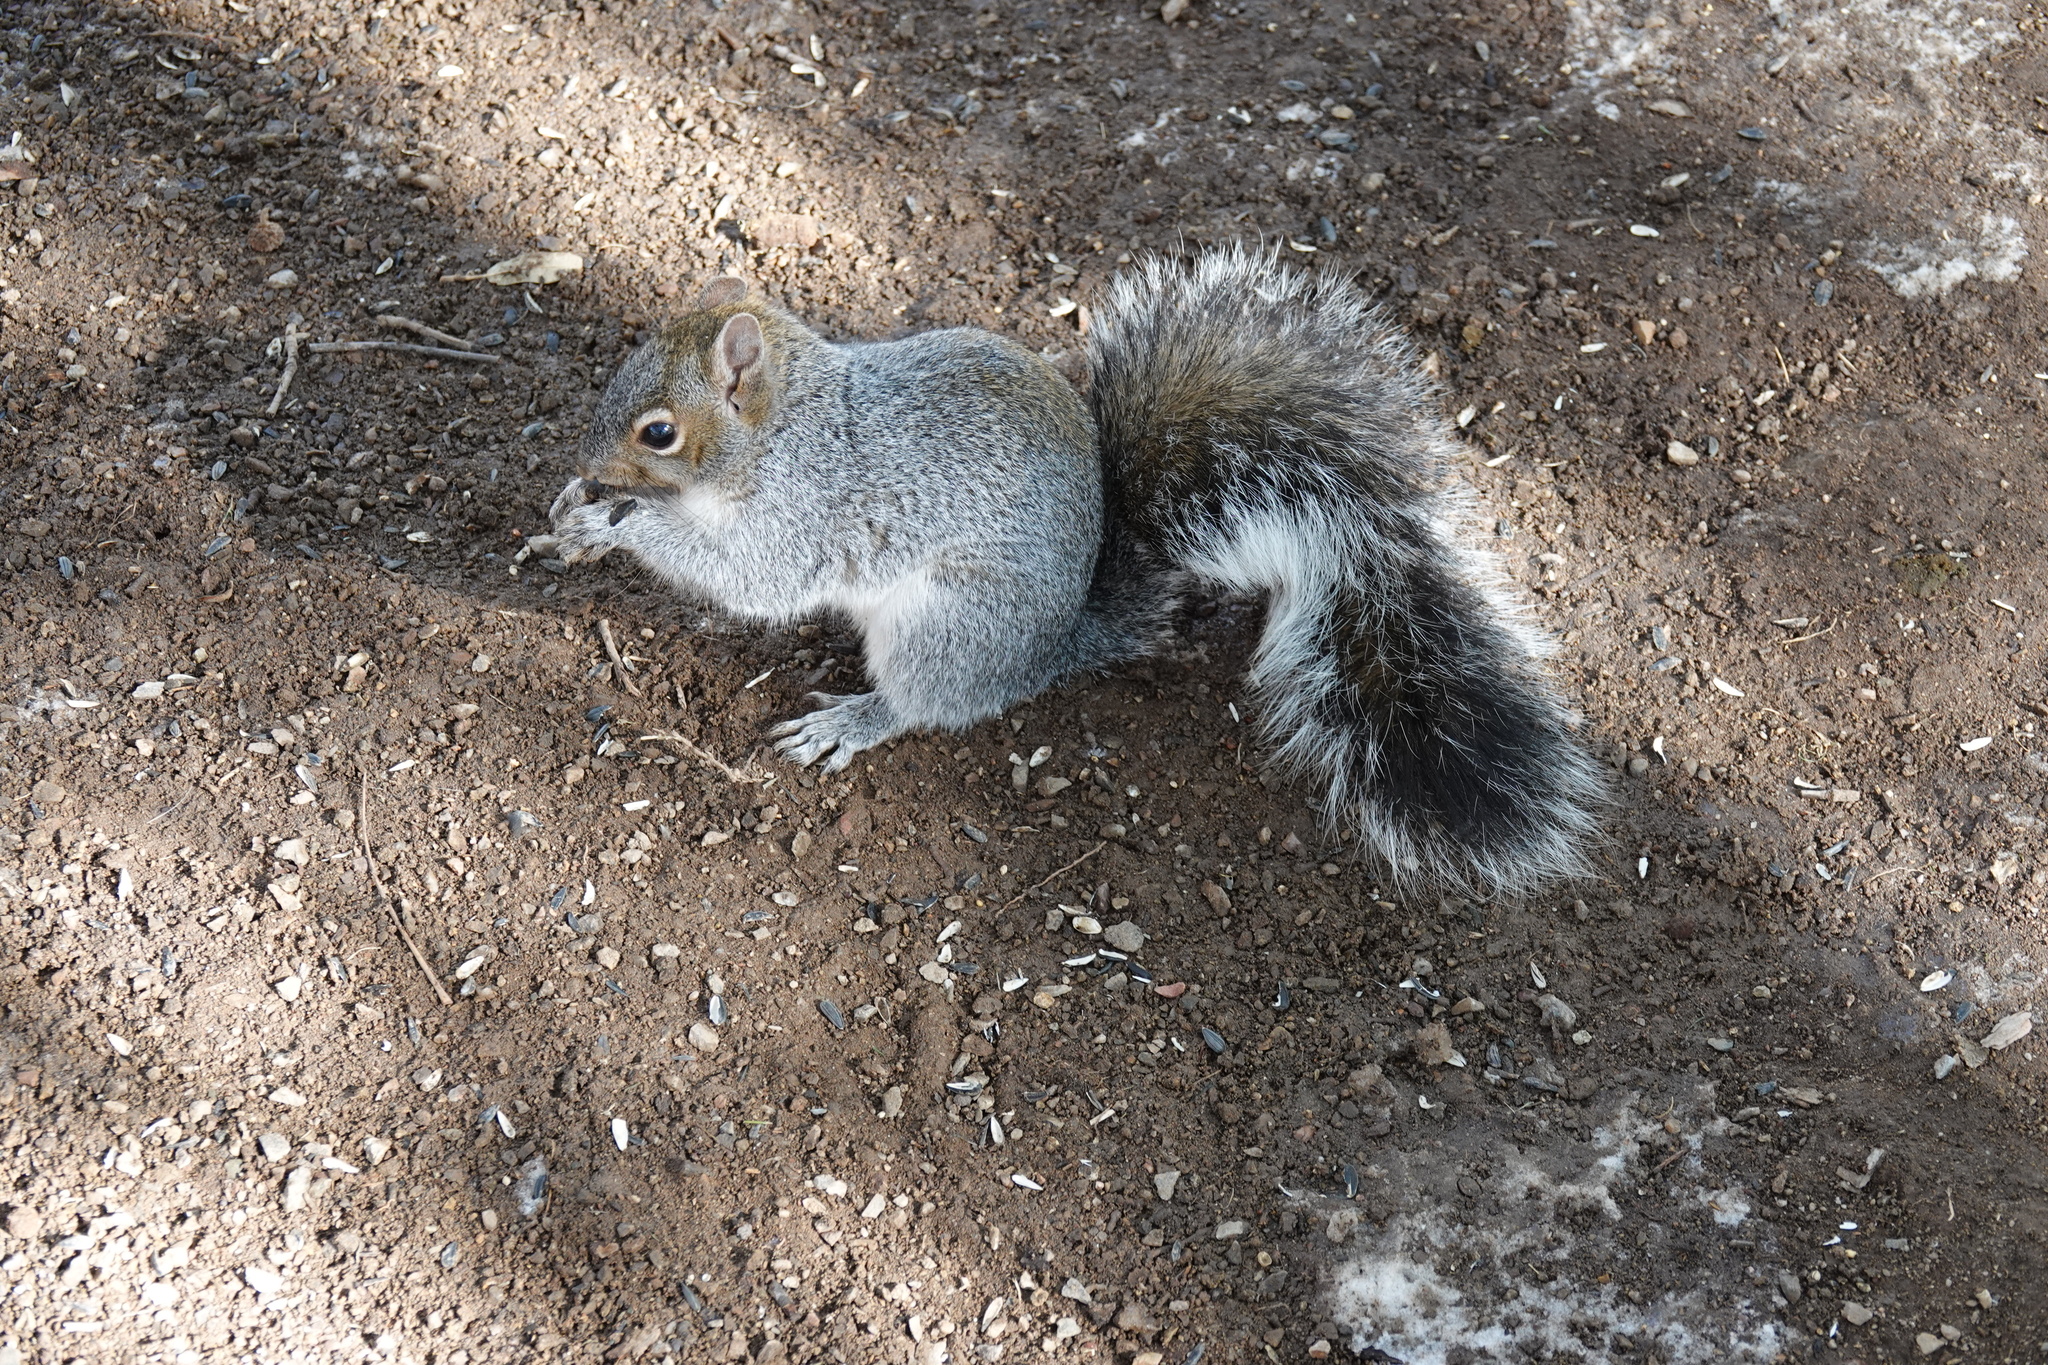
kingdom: Animalia
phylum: Chordata
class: Mammalia
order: Rodentia
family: Sciuridae
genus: Sciurus
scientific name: Sciurus arizonensis
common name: Arizona gray squirrel
